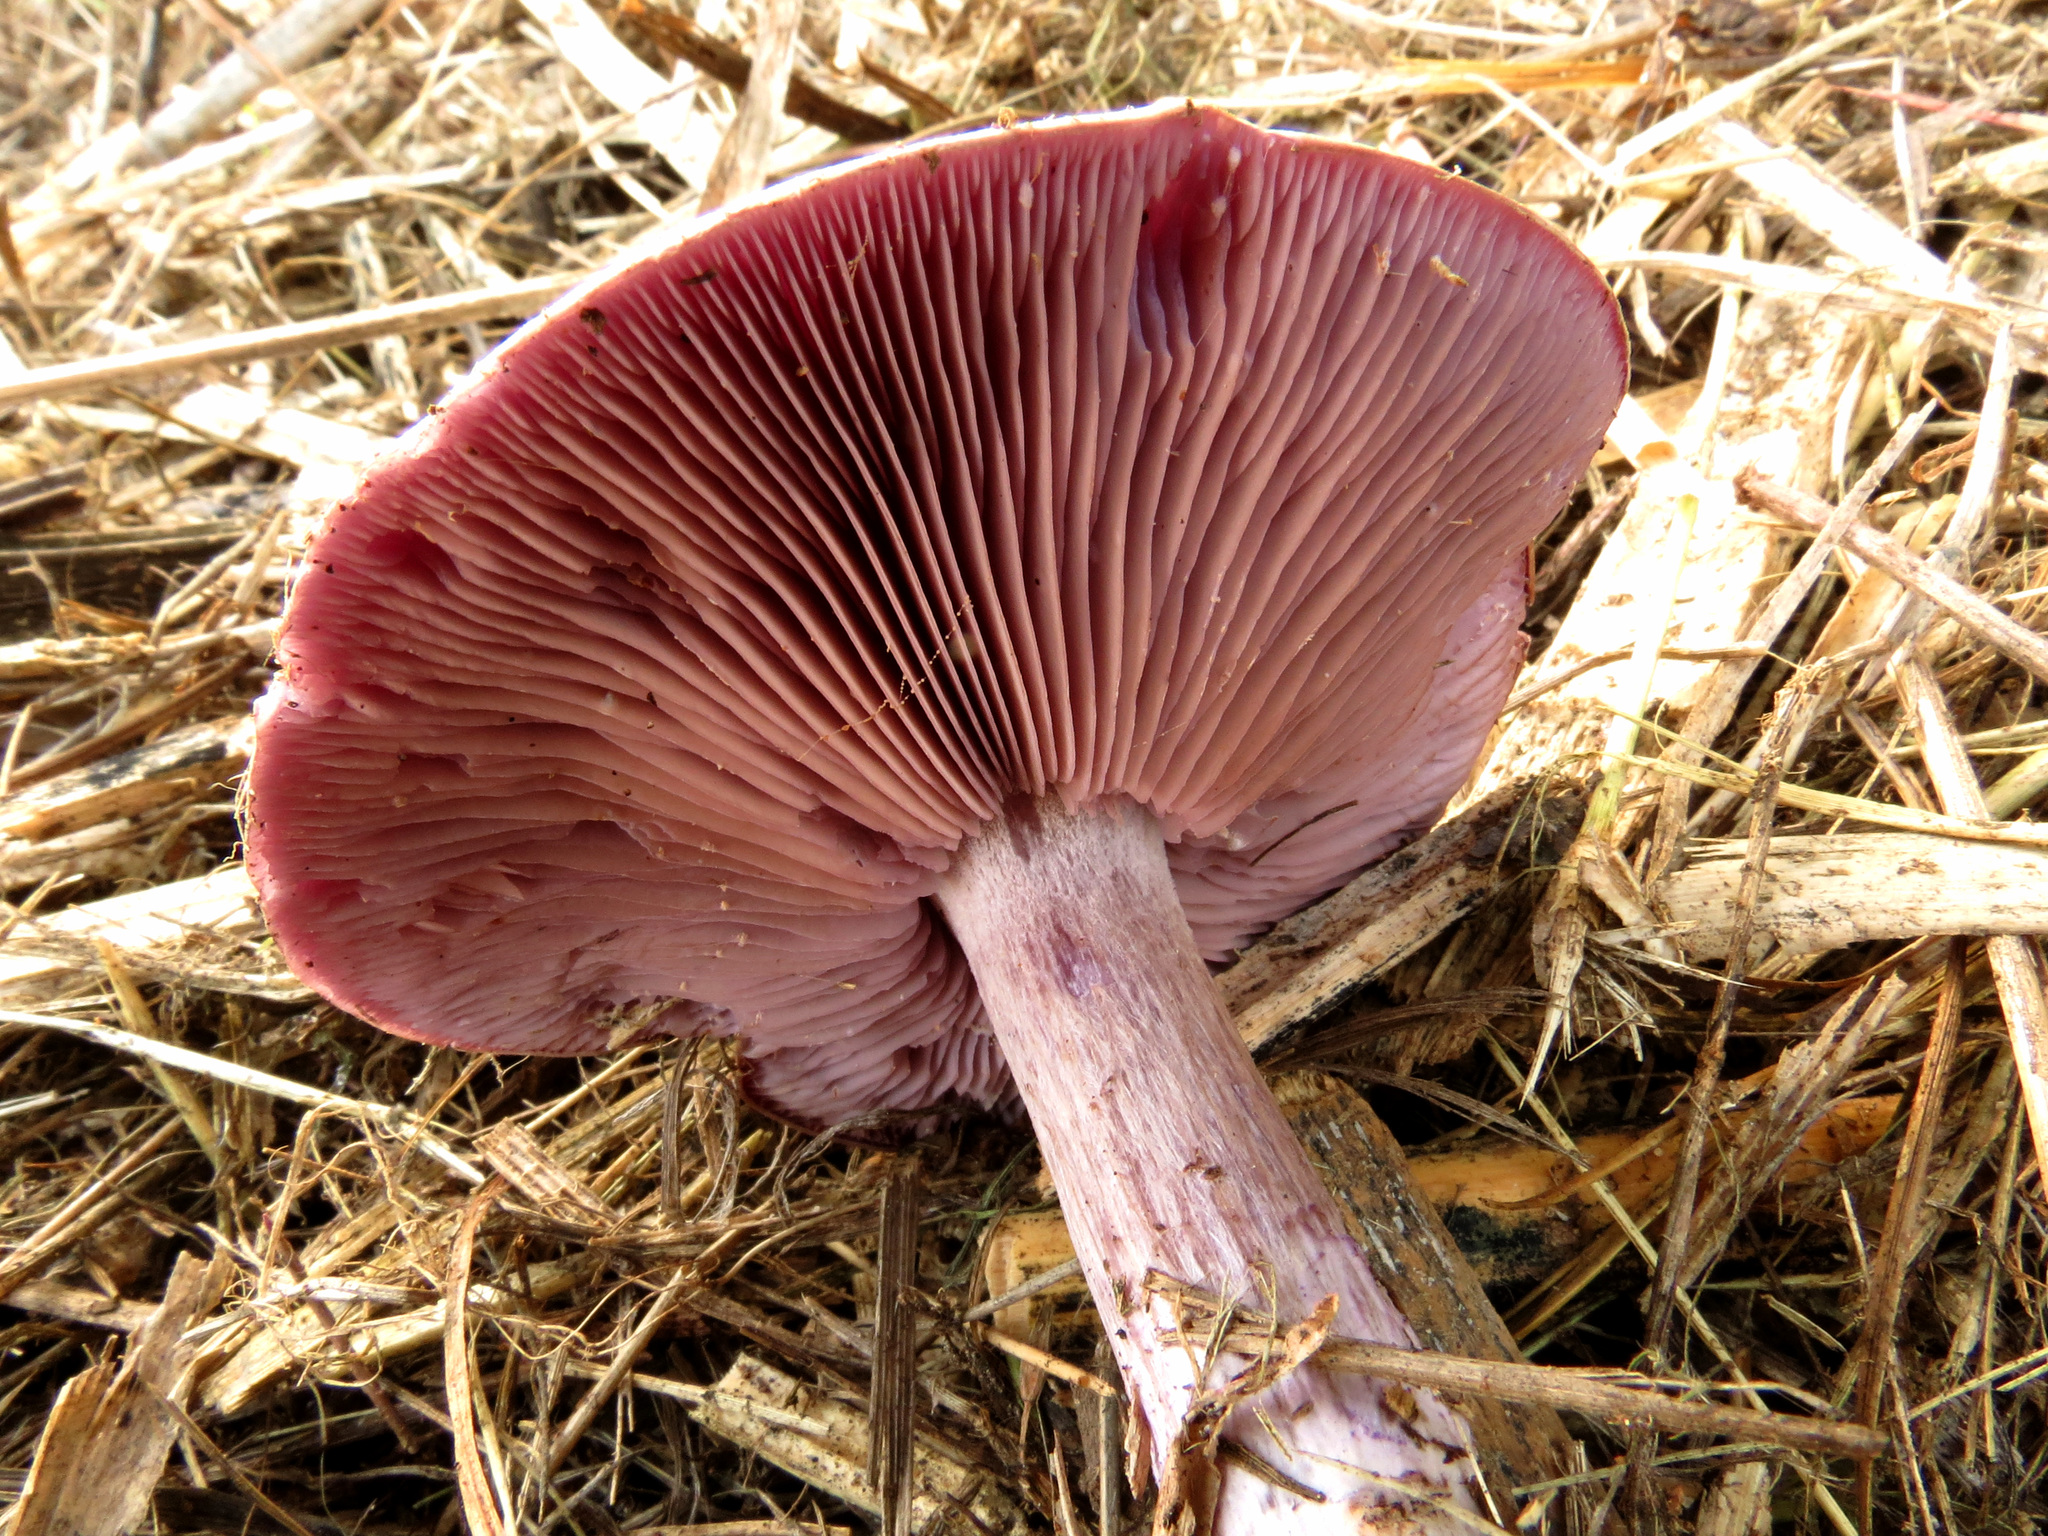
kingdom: Fungi
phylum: Basidiomycota
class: Agaricomycetes
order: Agaricales
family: Tricholomataceae
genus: Collybia
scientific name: Collybia
